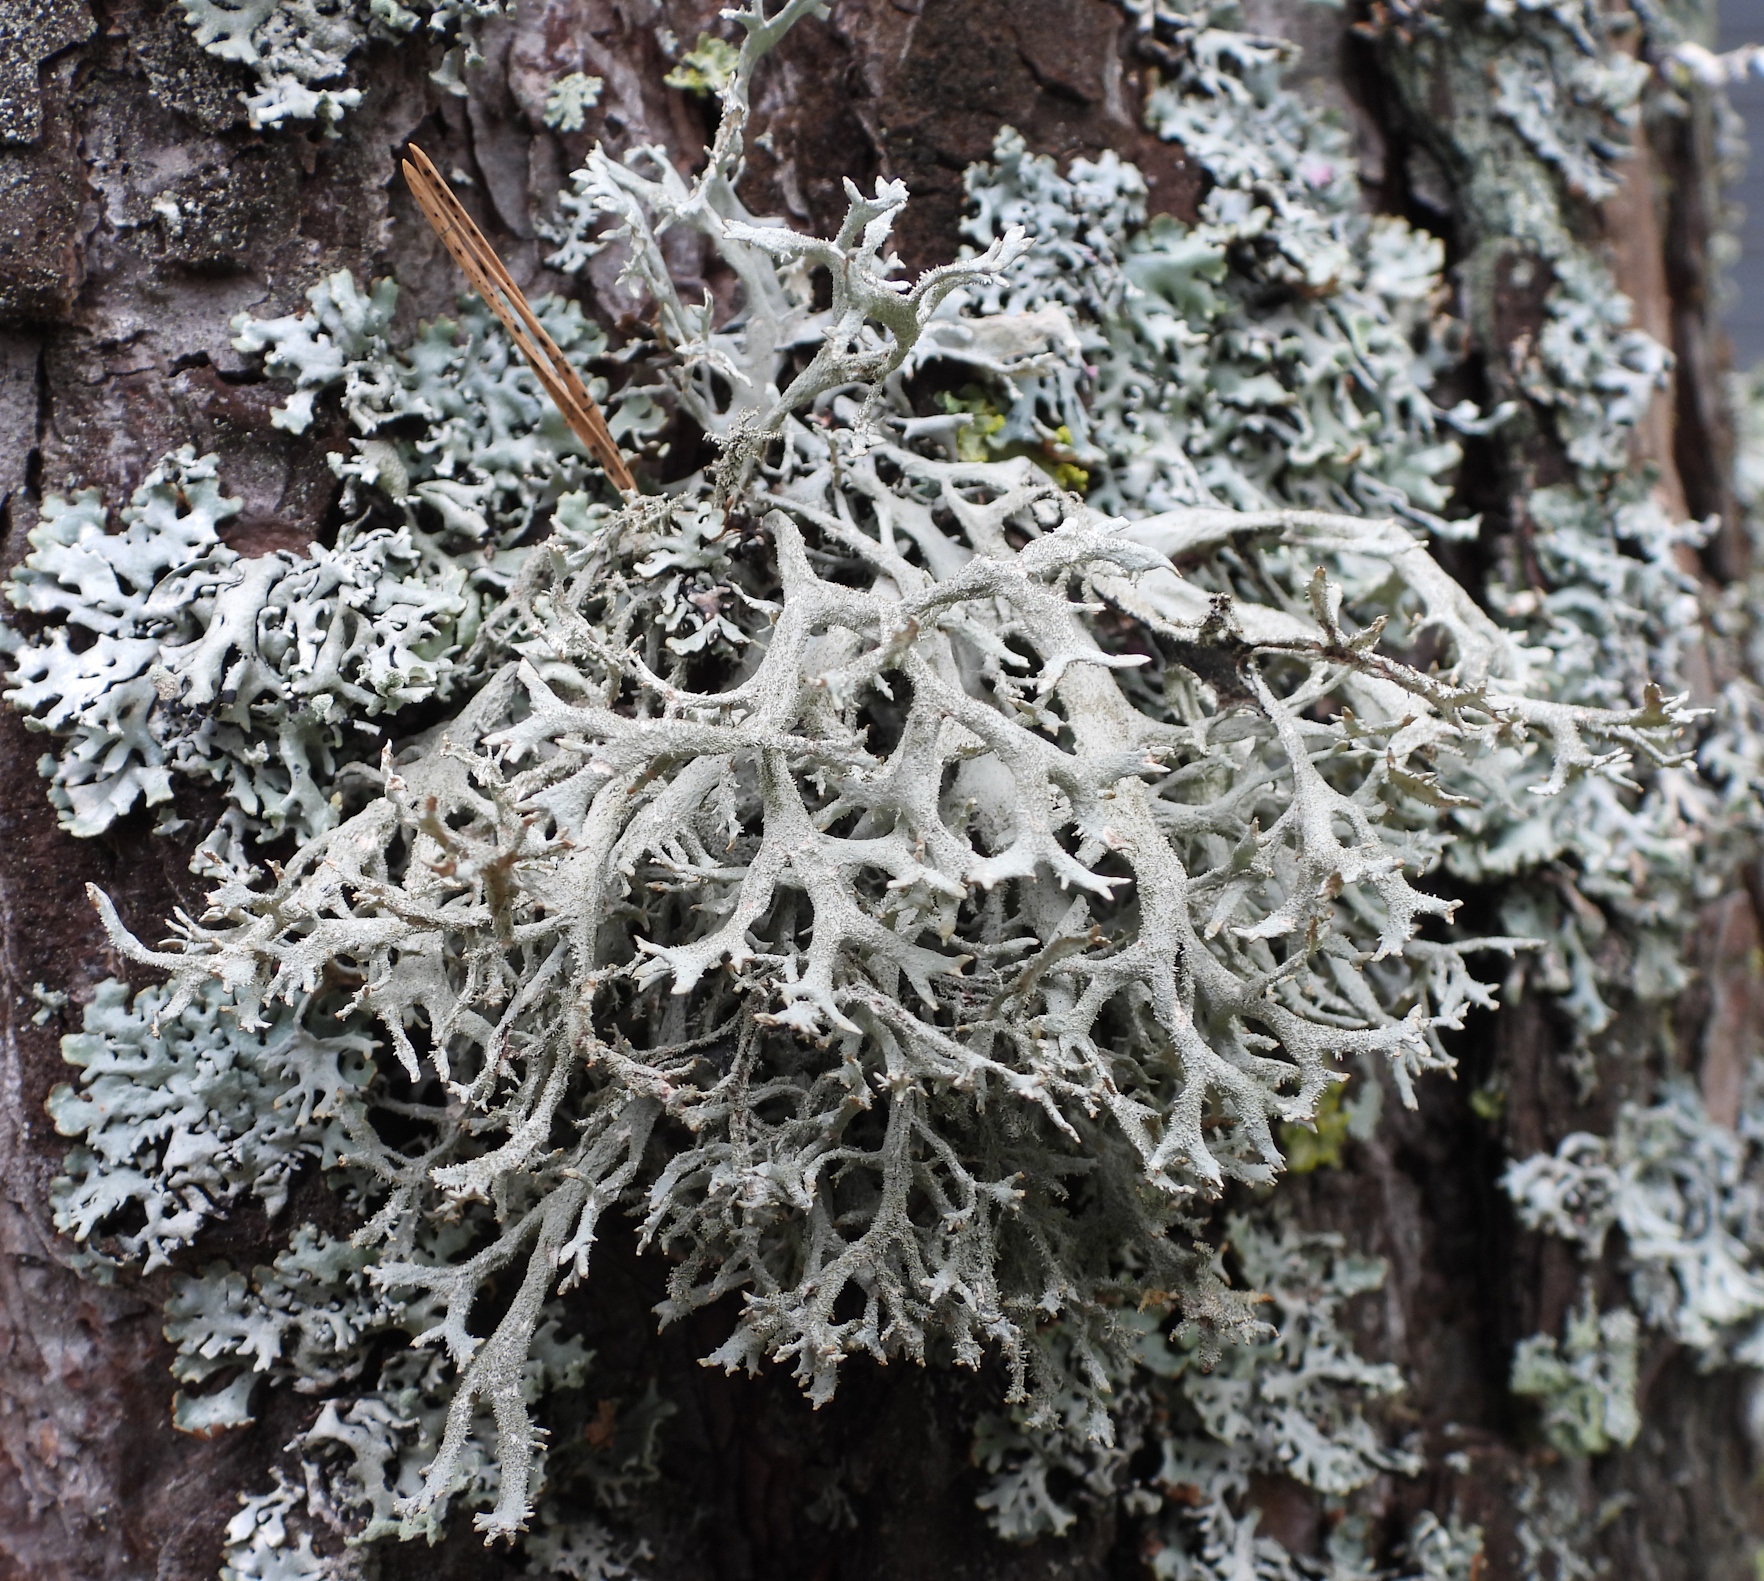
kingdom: Fungi
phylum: Ascomycota
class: Lecanoromycetes
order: Lecanorales
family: Parmeliaceae
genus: Pseudevernia
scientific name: Pseudevernia furfuracea
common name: Tree moss
